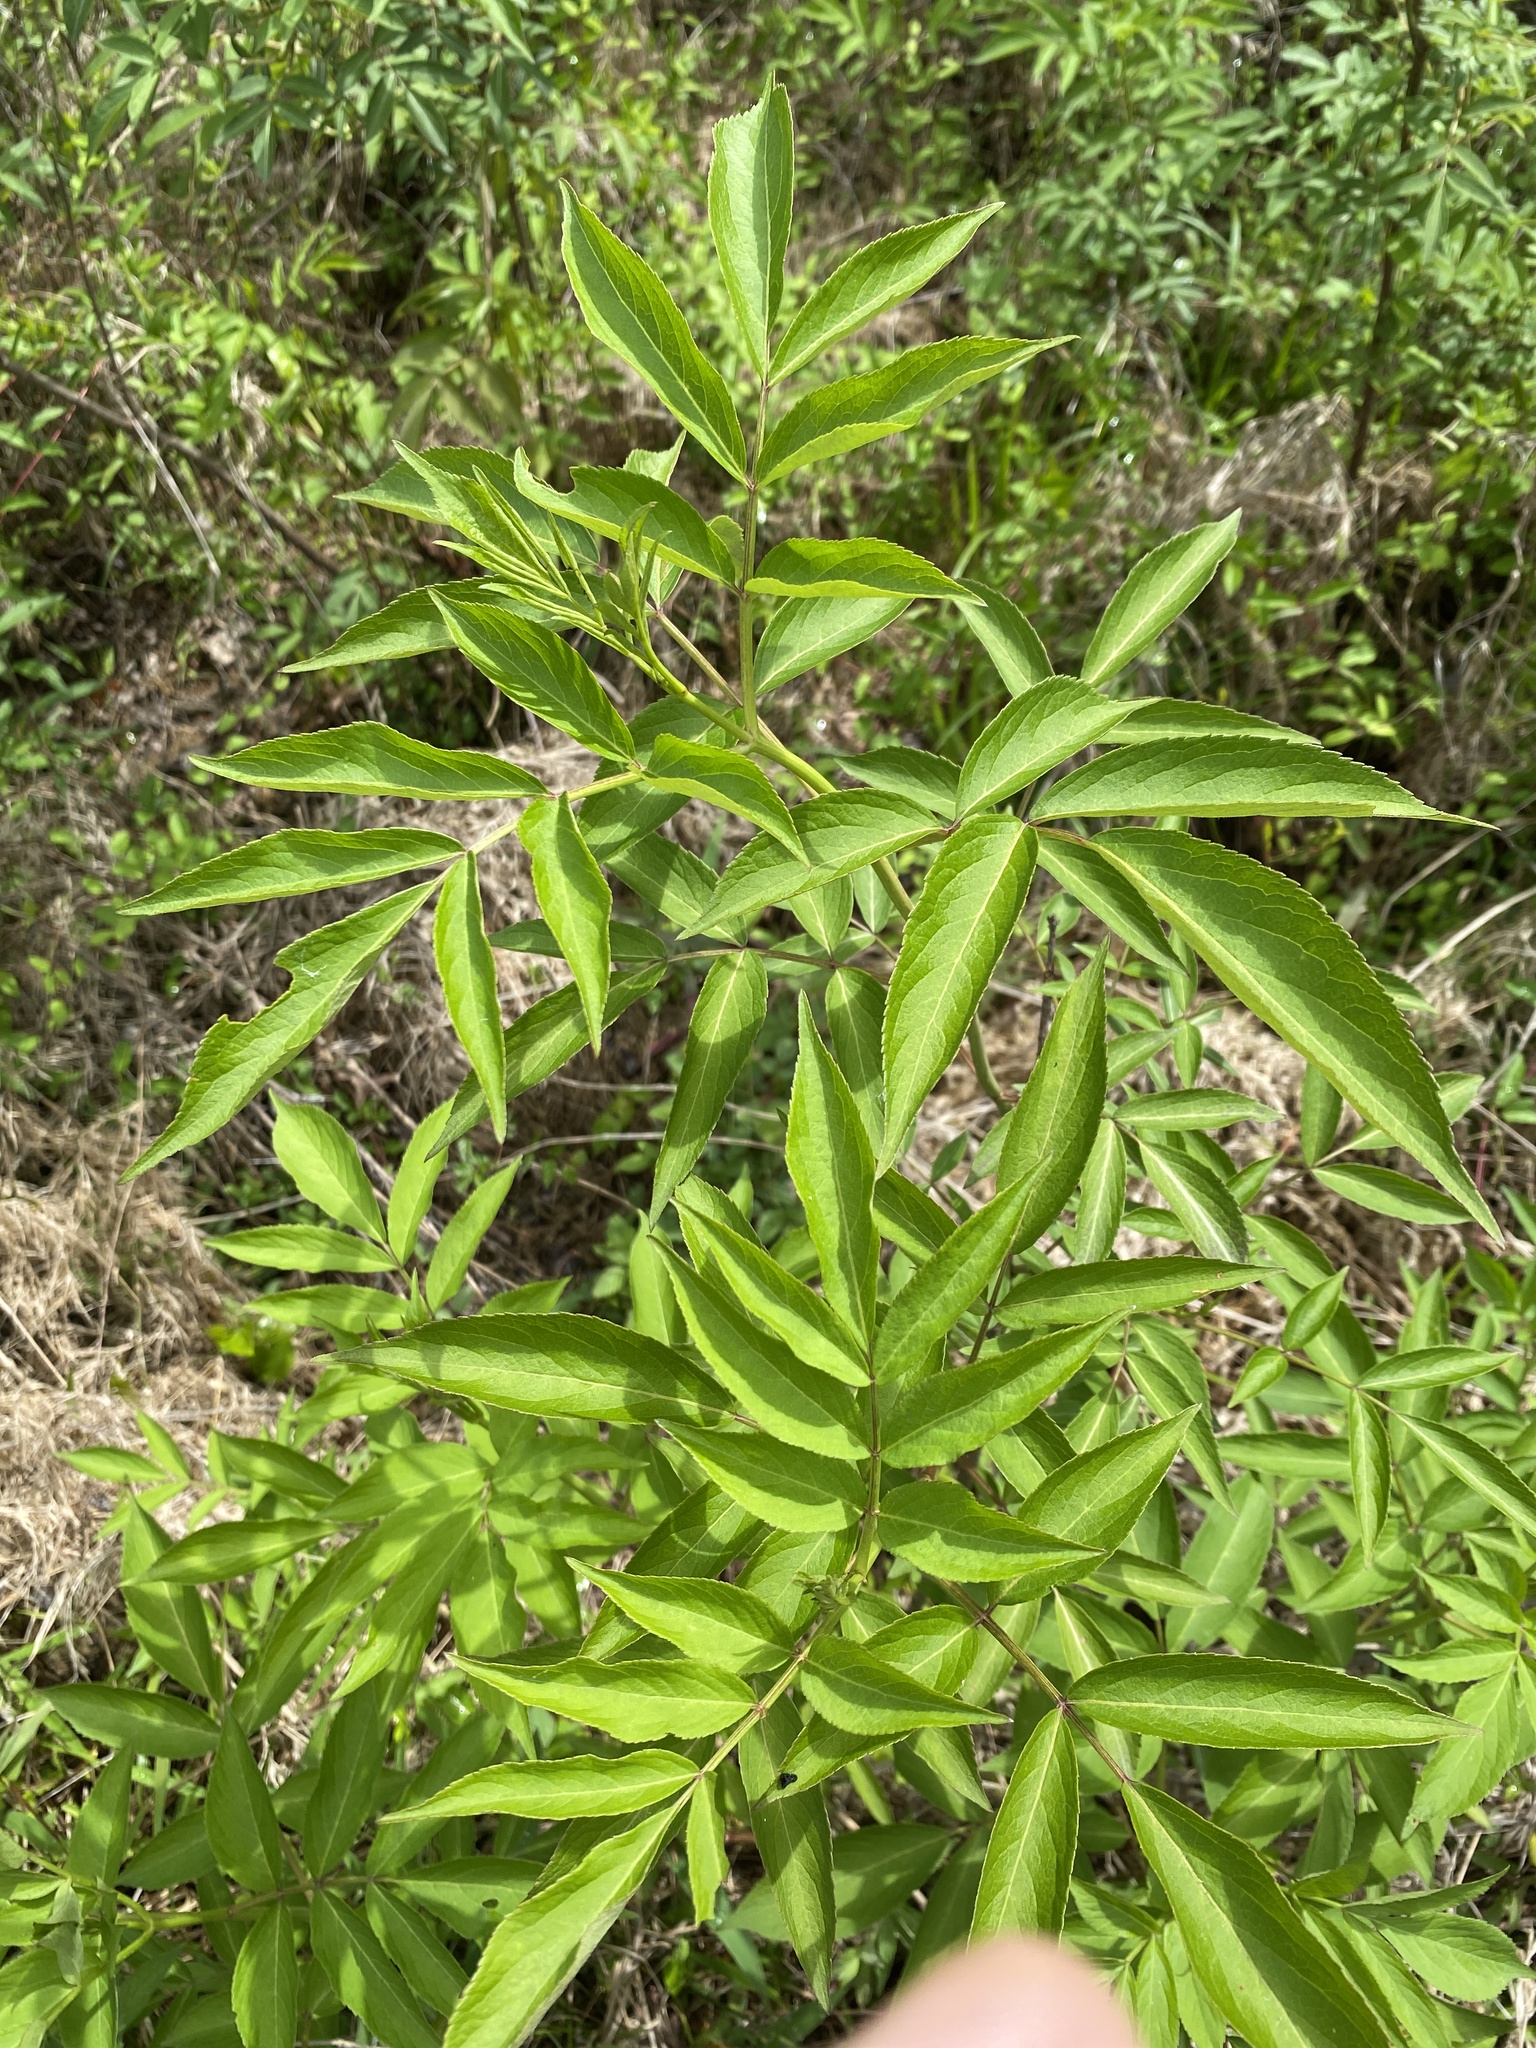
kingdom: Plantae
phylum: Tracheophyta
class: Magnoliopsida
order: Dipsacales
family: Viburnaceae
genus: Sambucus
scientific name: Sambucus canadensis
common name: American elder
